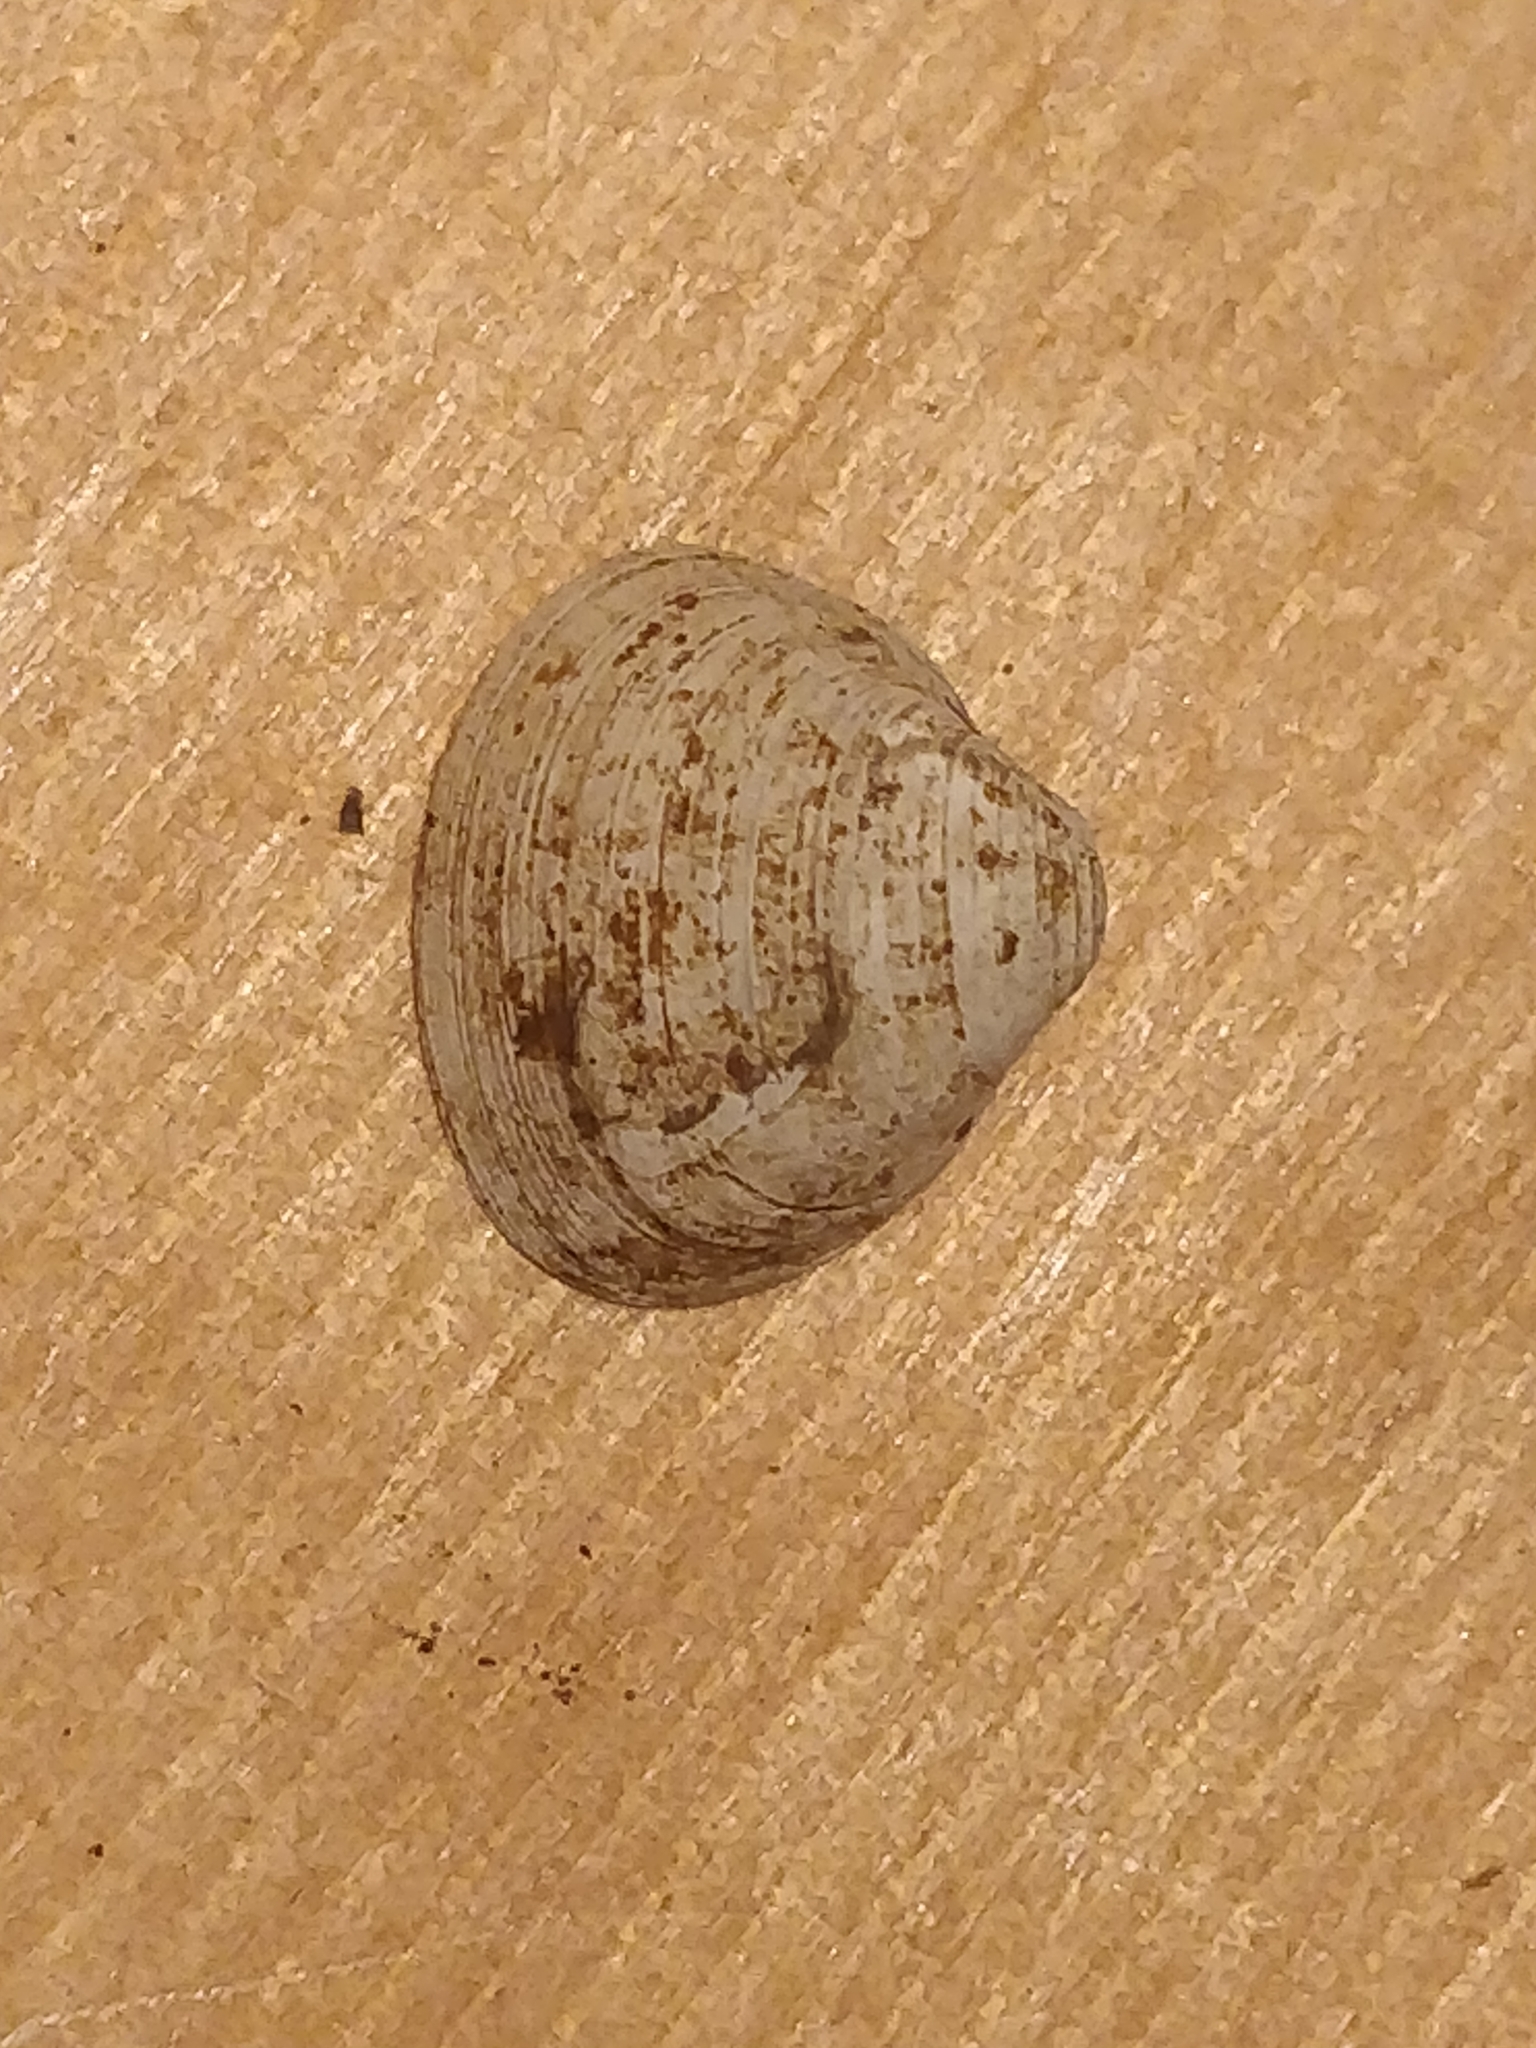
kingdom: Animalia
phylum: Mollusca
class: Bivalvia
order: Sphaeriida
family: Sphaeriidae
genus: Sphaerium
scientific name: Sphaerium striatinum
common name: Striated fingernailclam
